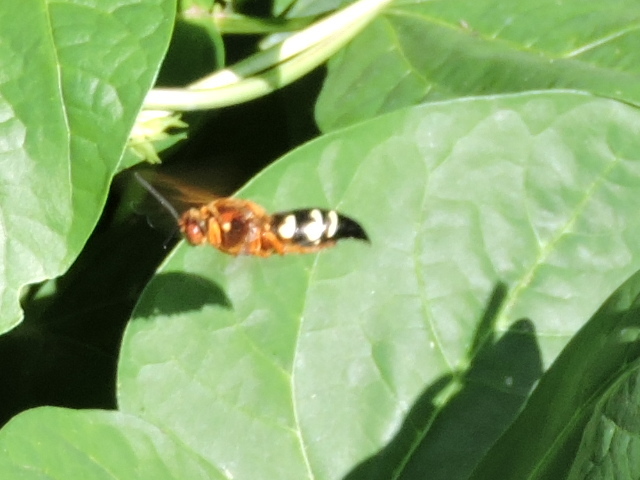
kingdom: Animalia
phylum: Arthropoda
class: Insecta
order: Hymenoptera
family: Crabronidae
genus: Sphecius
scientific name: Sphecius speciosus
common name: Cicada killer
